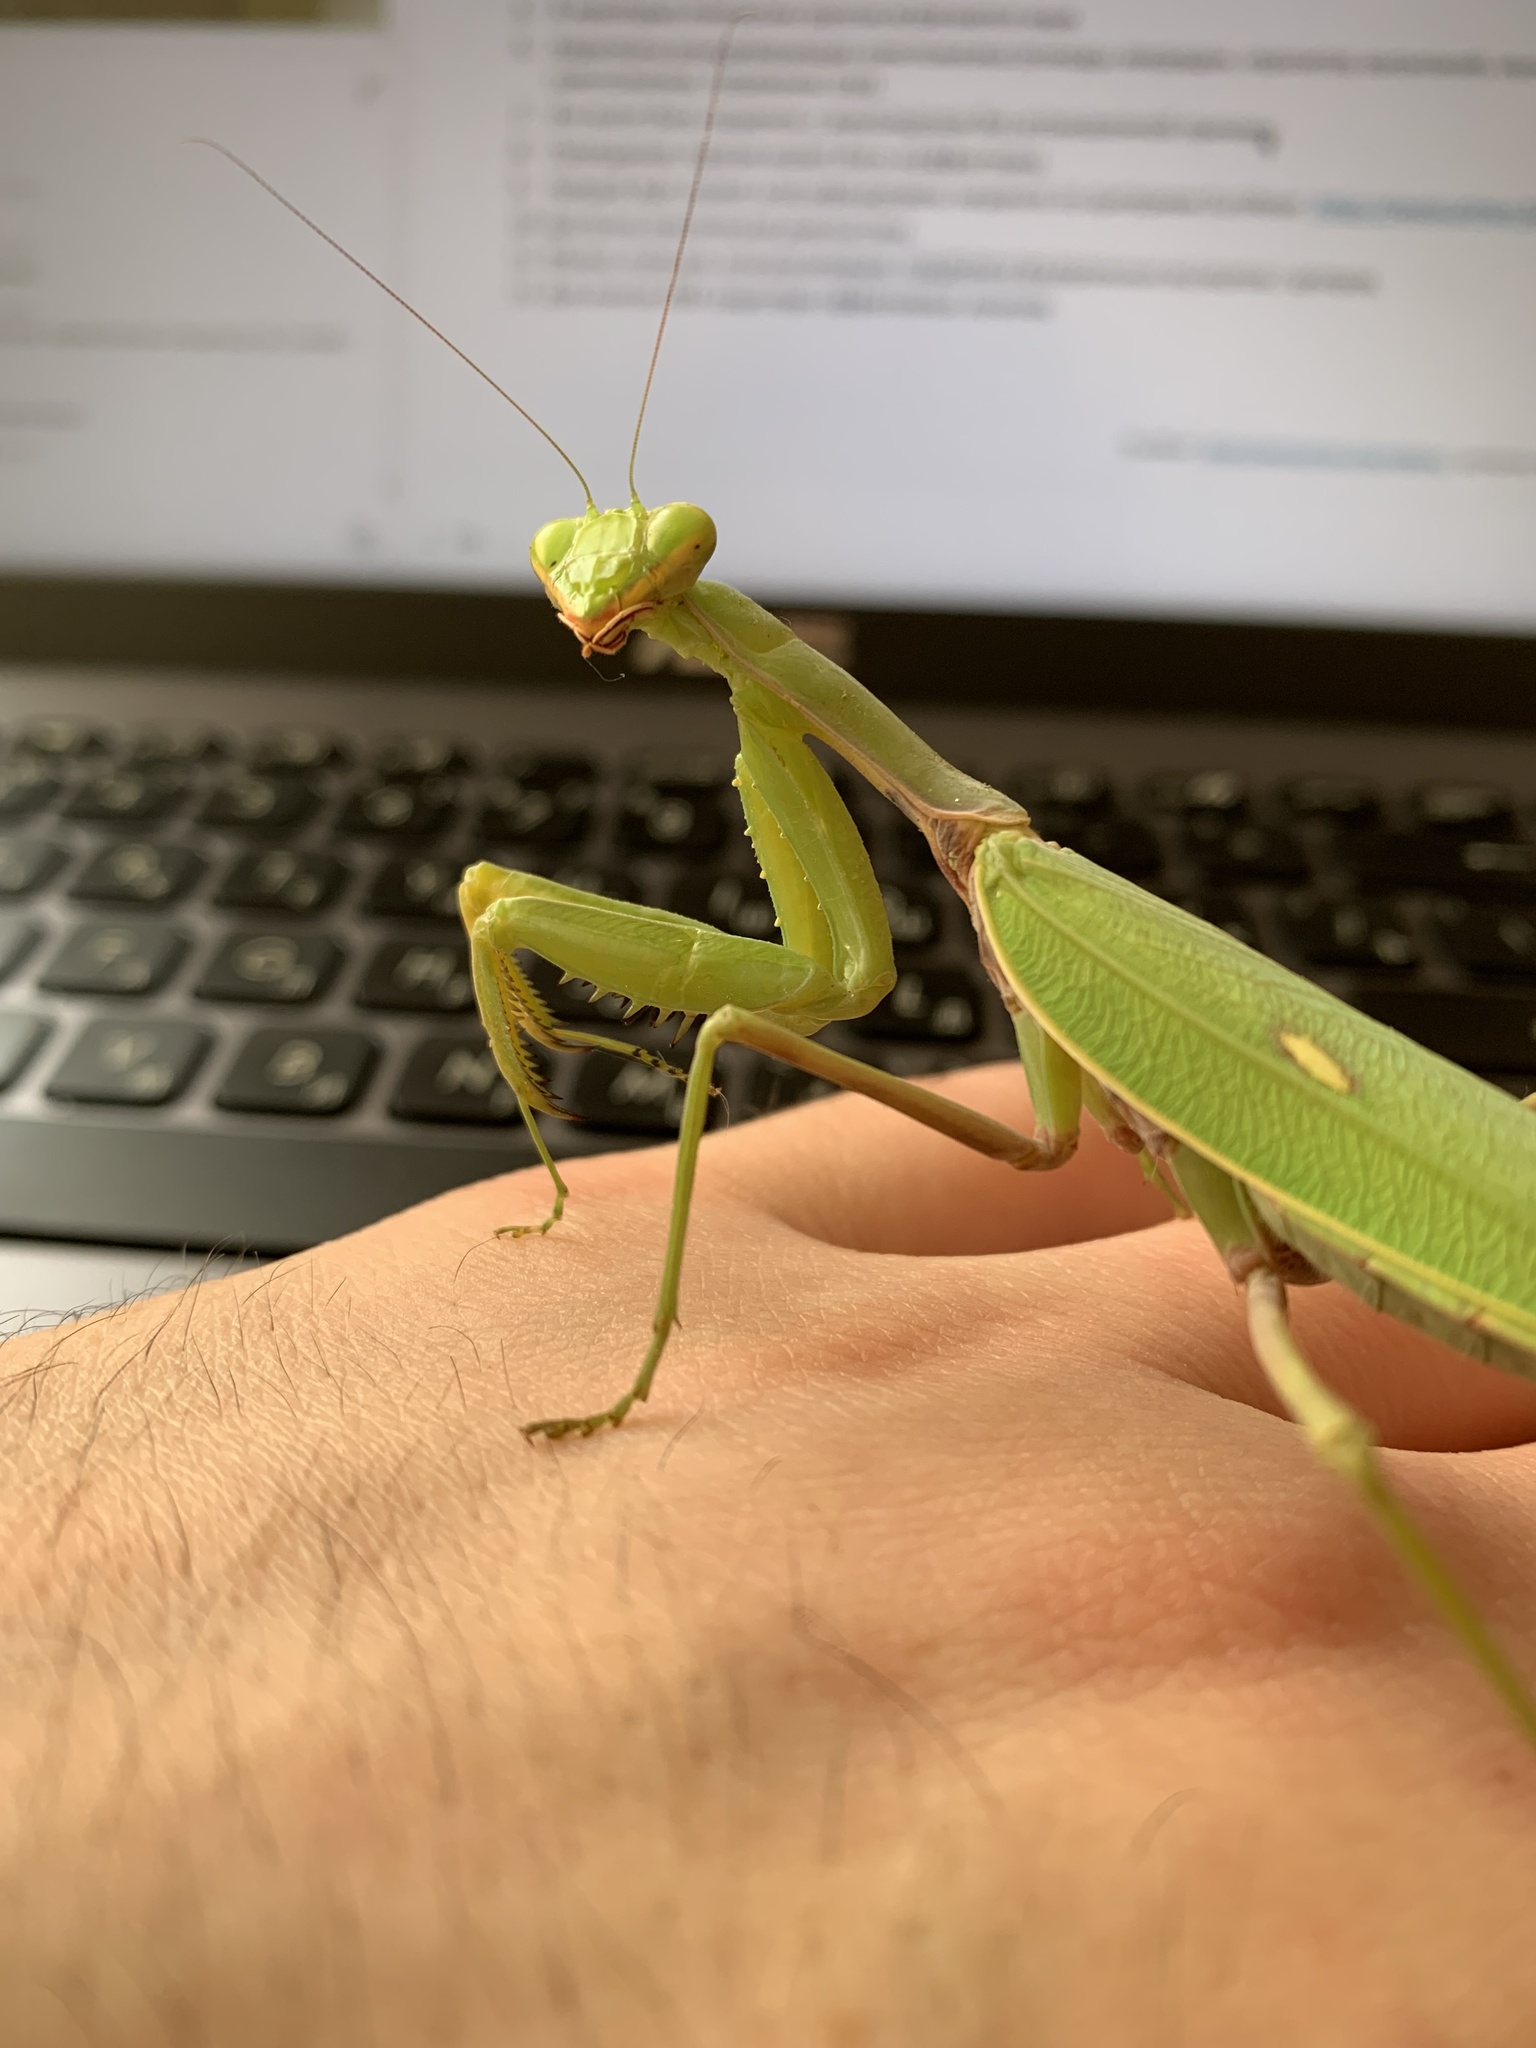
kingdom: Animalia
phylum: Arthropoda
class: Insecta
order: Mantodea
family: Mantidae
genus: Hierodula
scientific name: Hierodula transcaucasica
